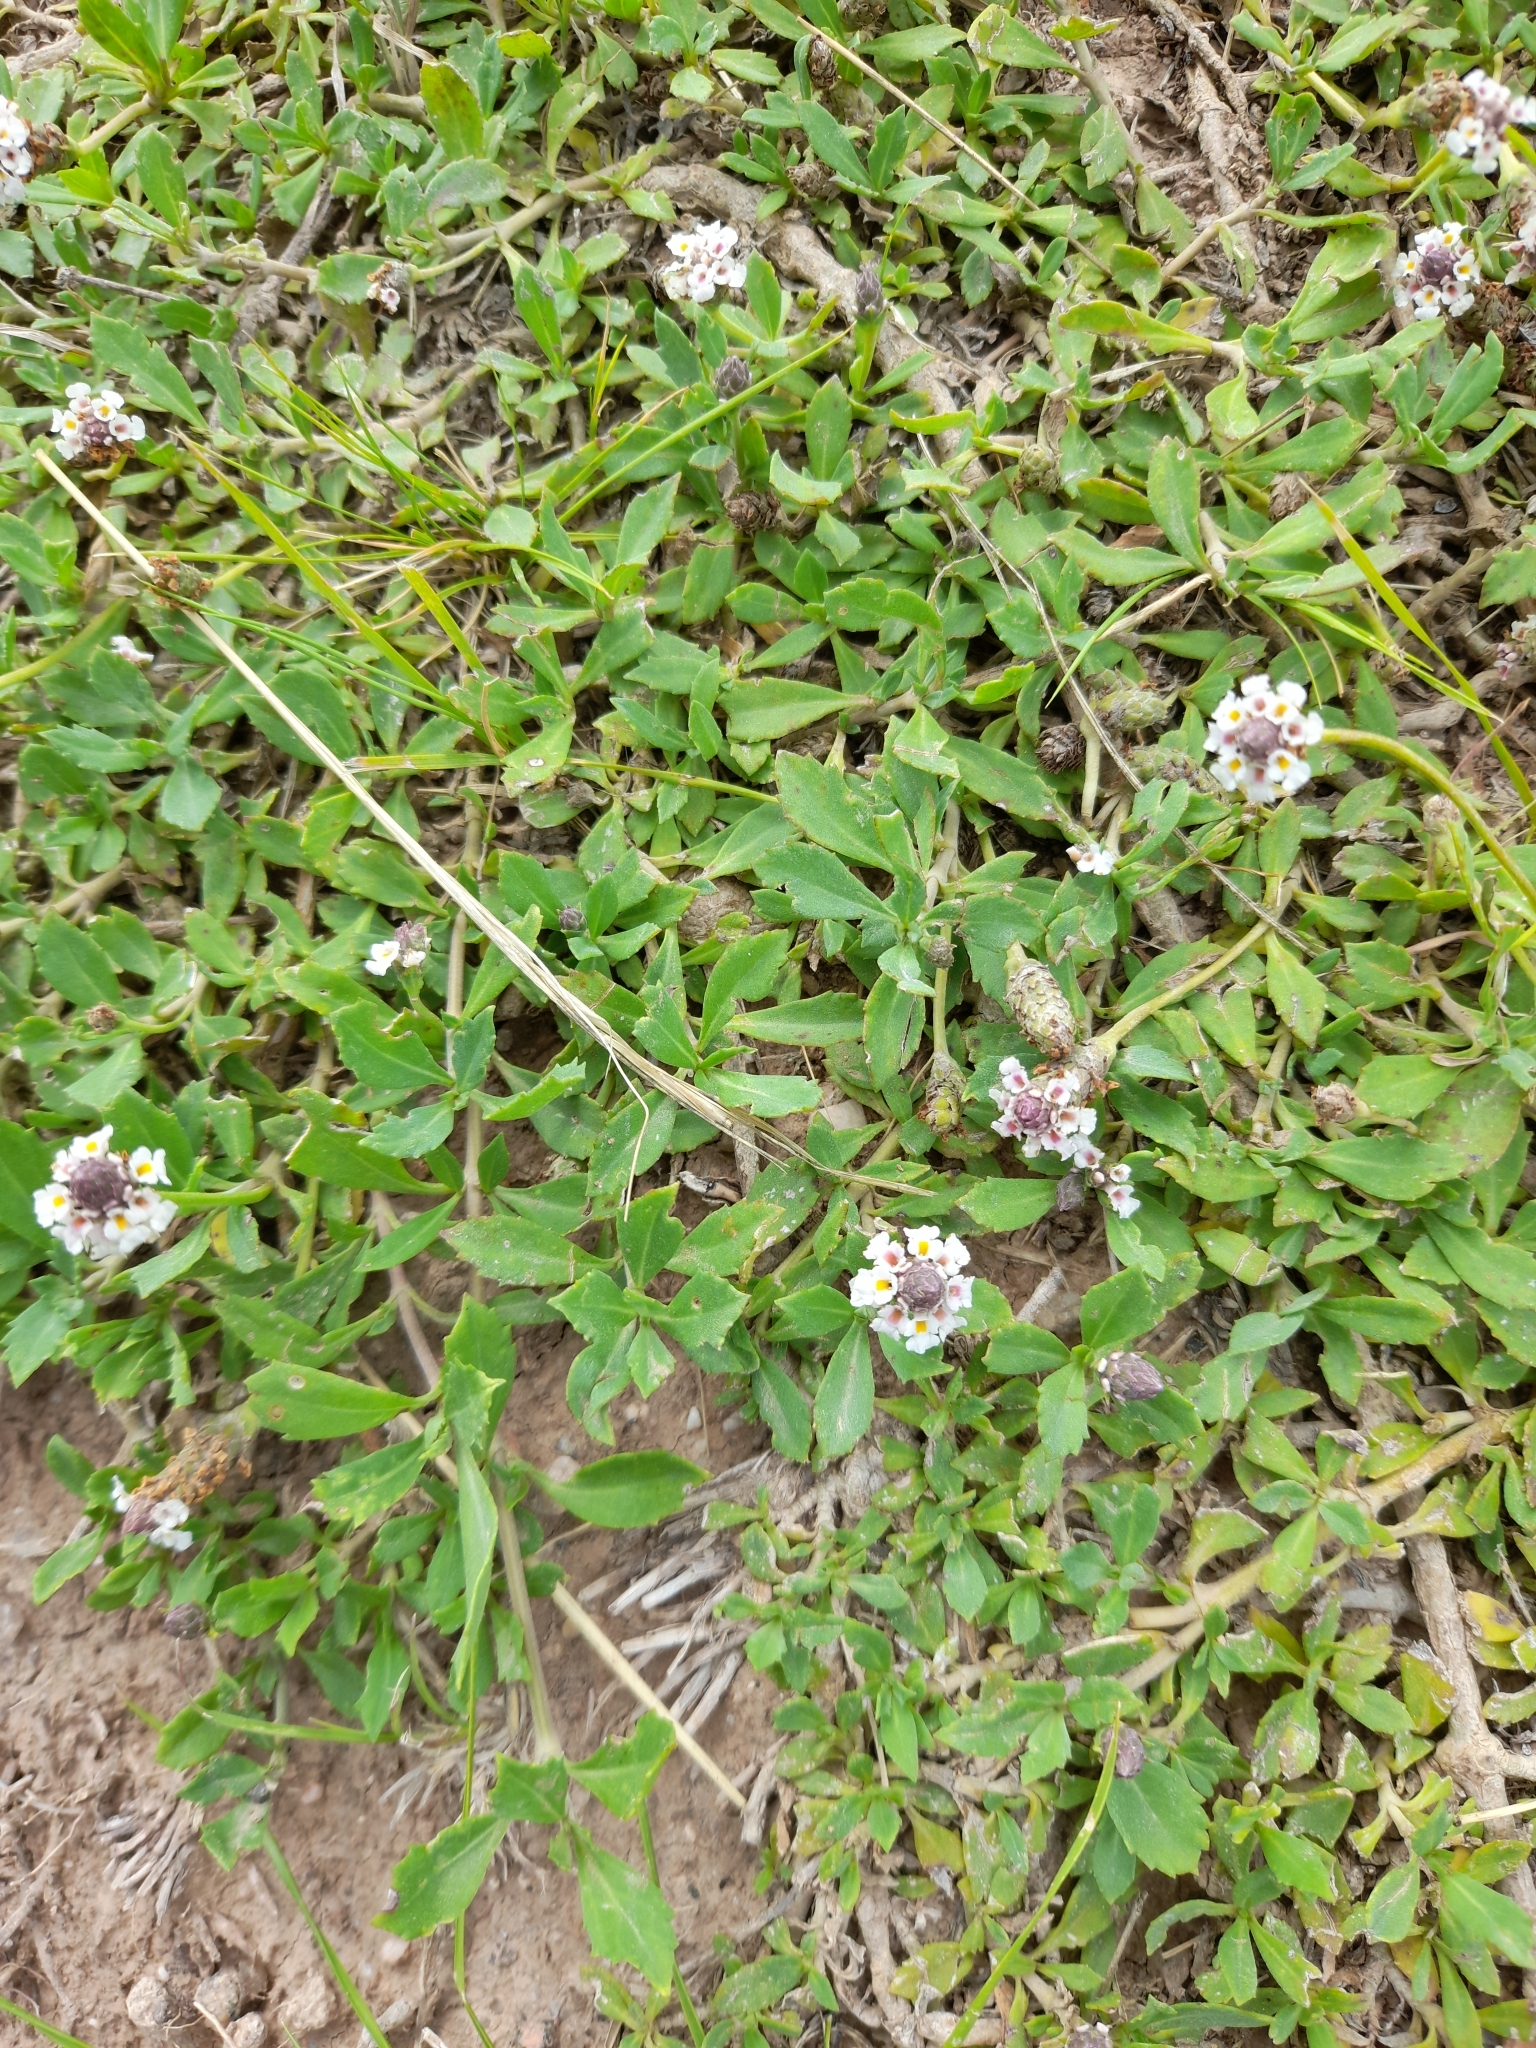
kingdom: Plantae
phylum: Tracheophyta
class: Magnoliopsida
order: Lamiales
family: Verbenaceae
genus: Phyla
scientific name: Phyla nodiflora
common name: Frogfruit
